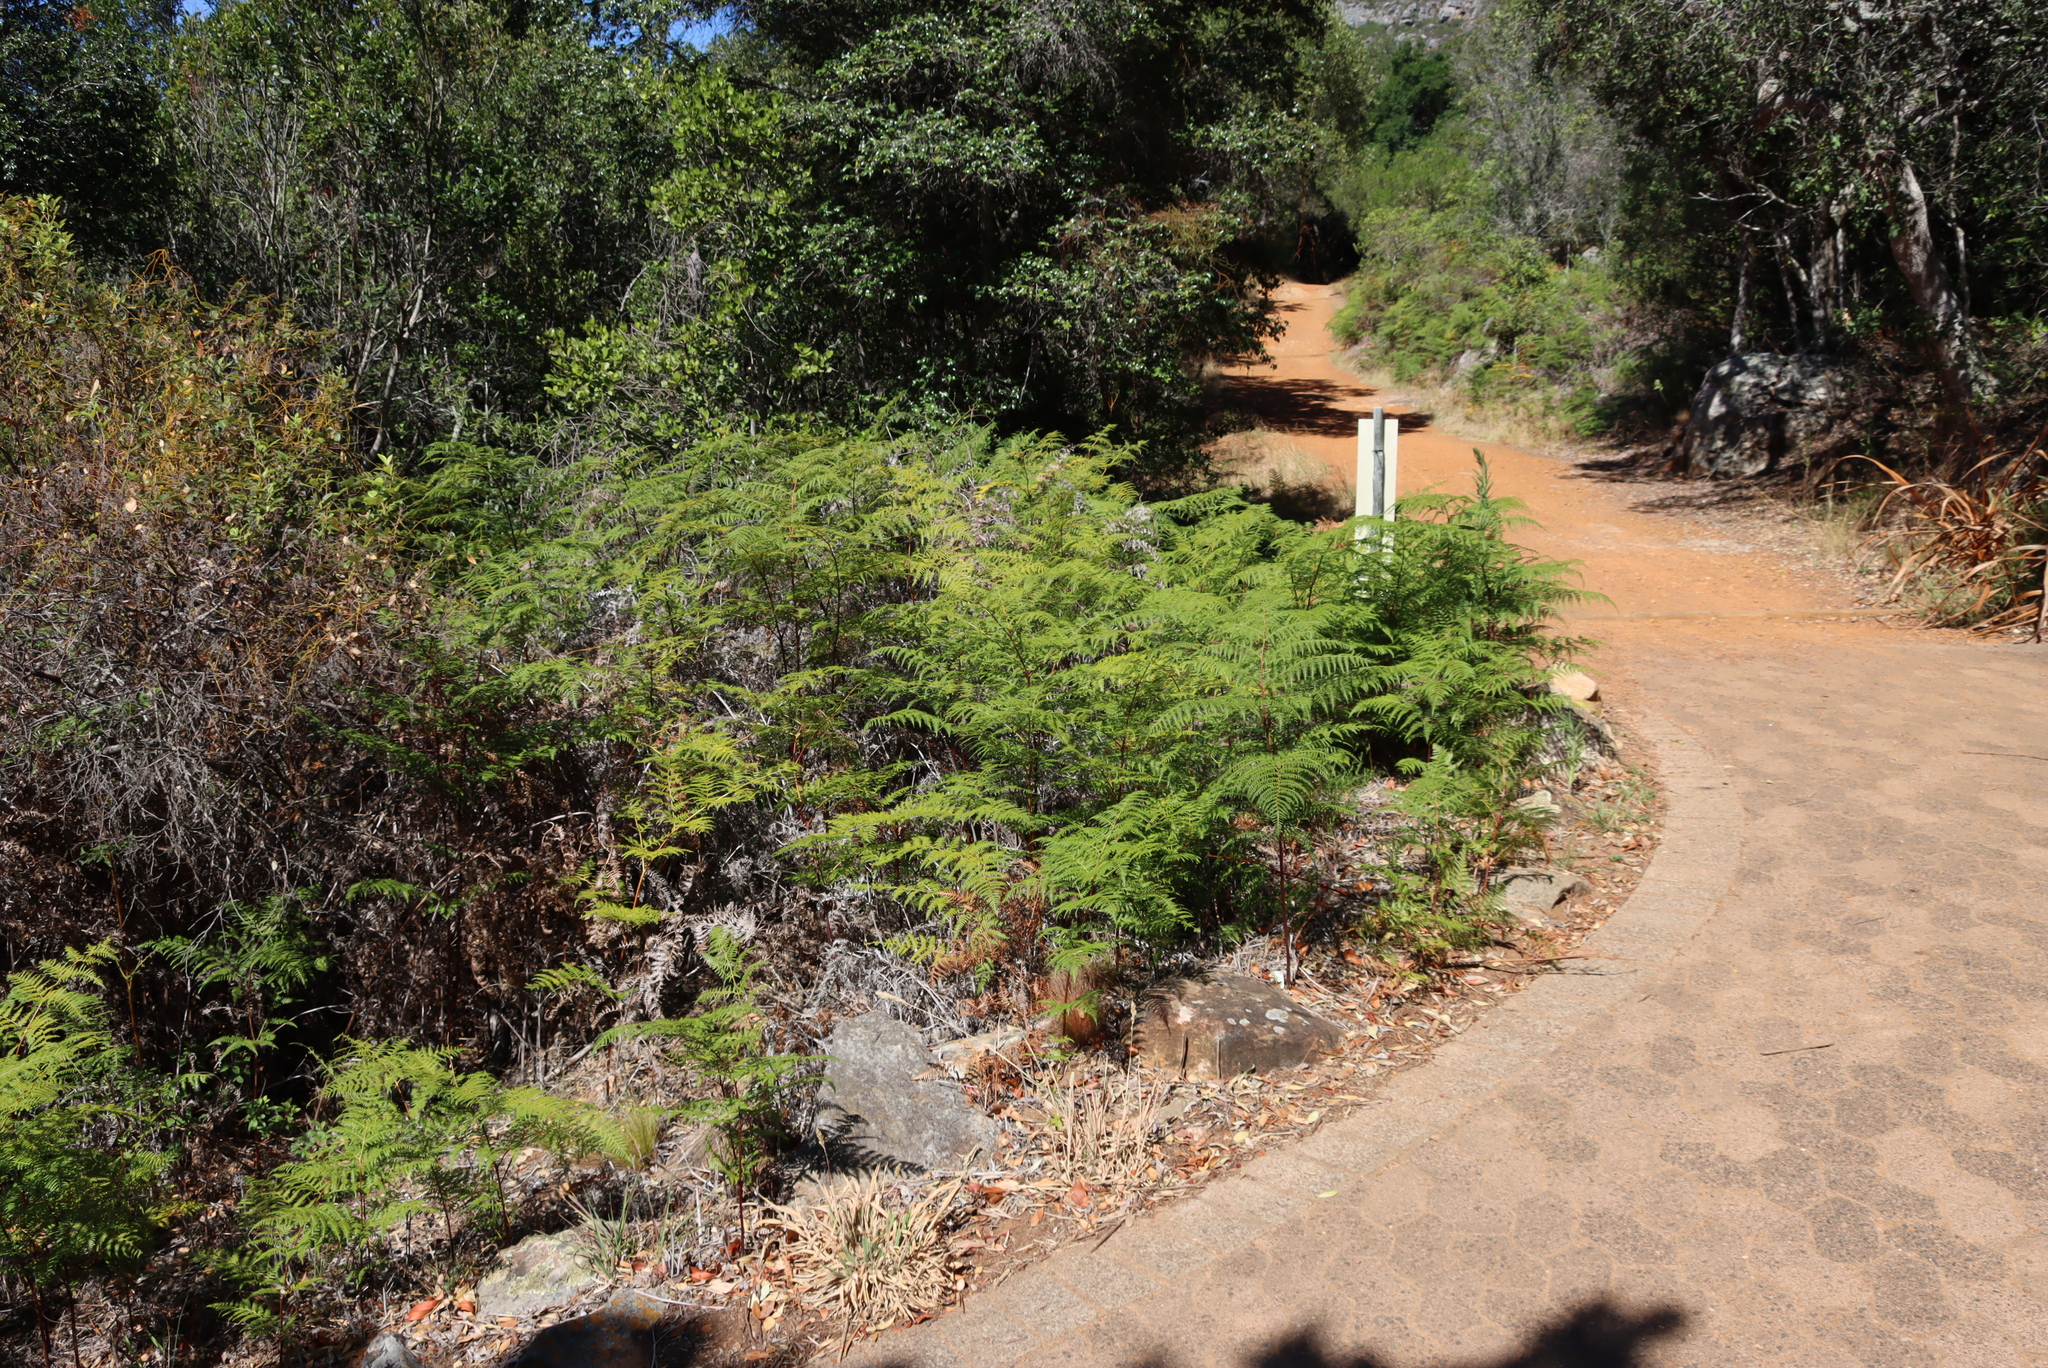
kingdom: Plantae
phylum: Tracheophyta
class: Polypodiopsida
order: Polypodiales
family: Dennstaedtiaceae
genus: Pteridium
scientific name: Pteridium aquilinum
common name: Bracken
